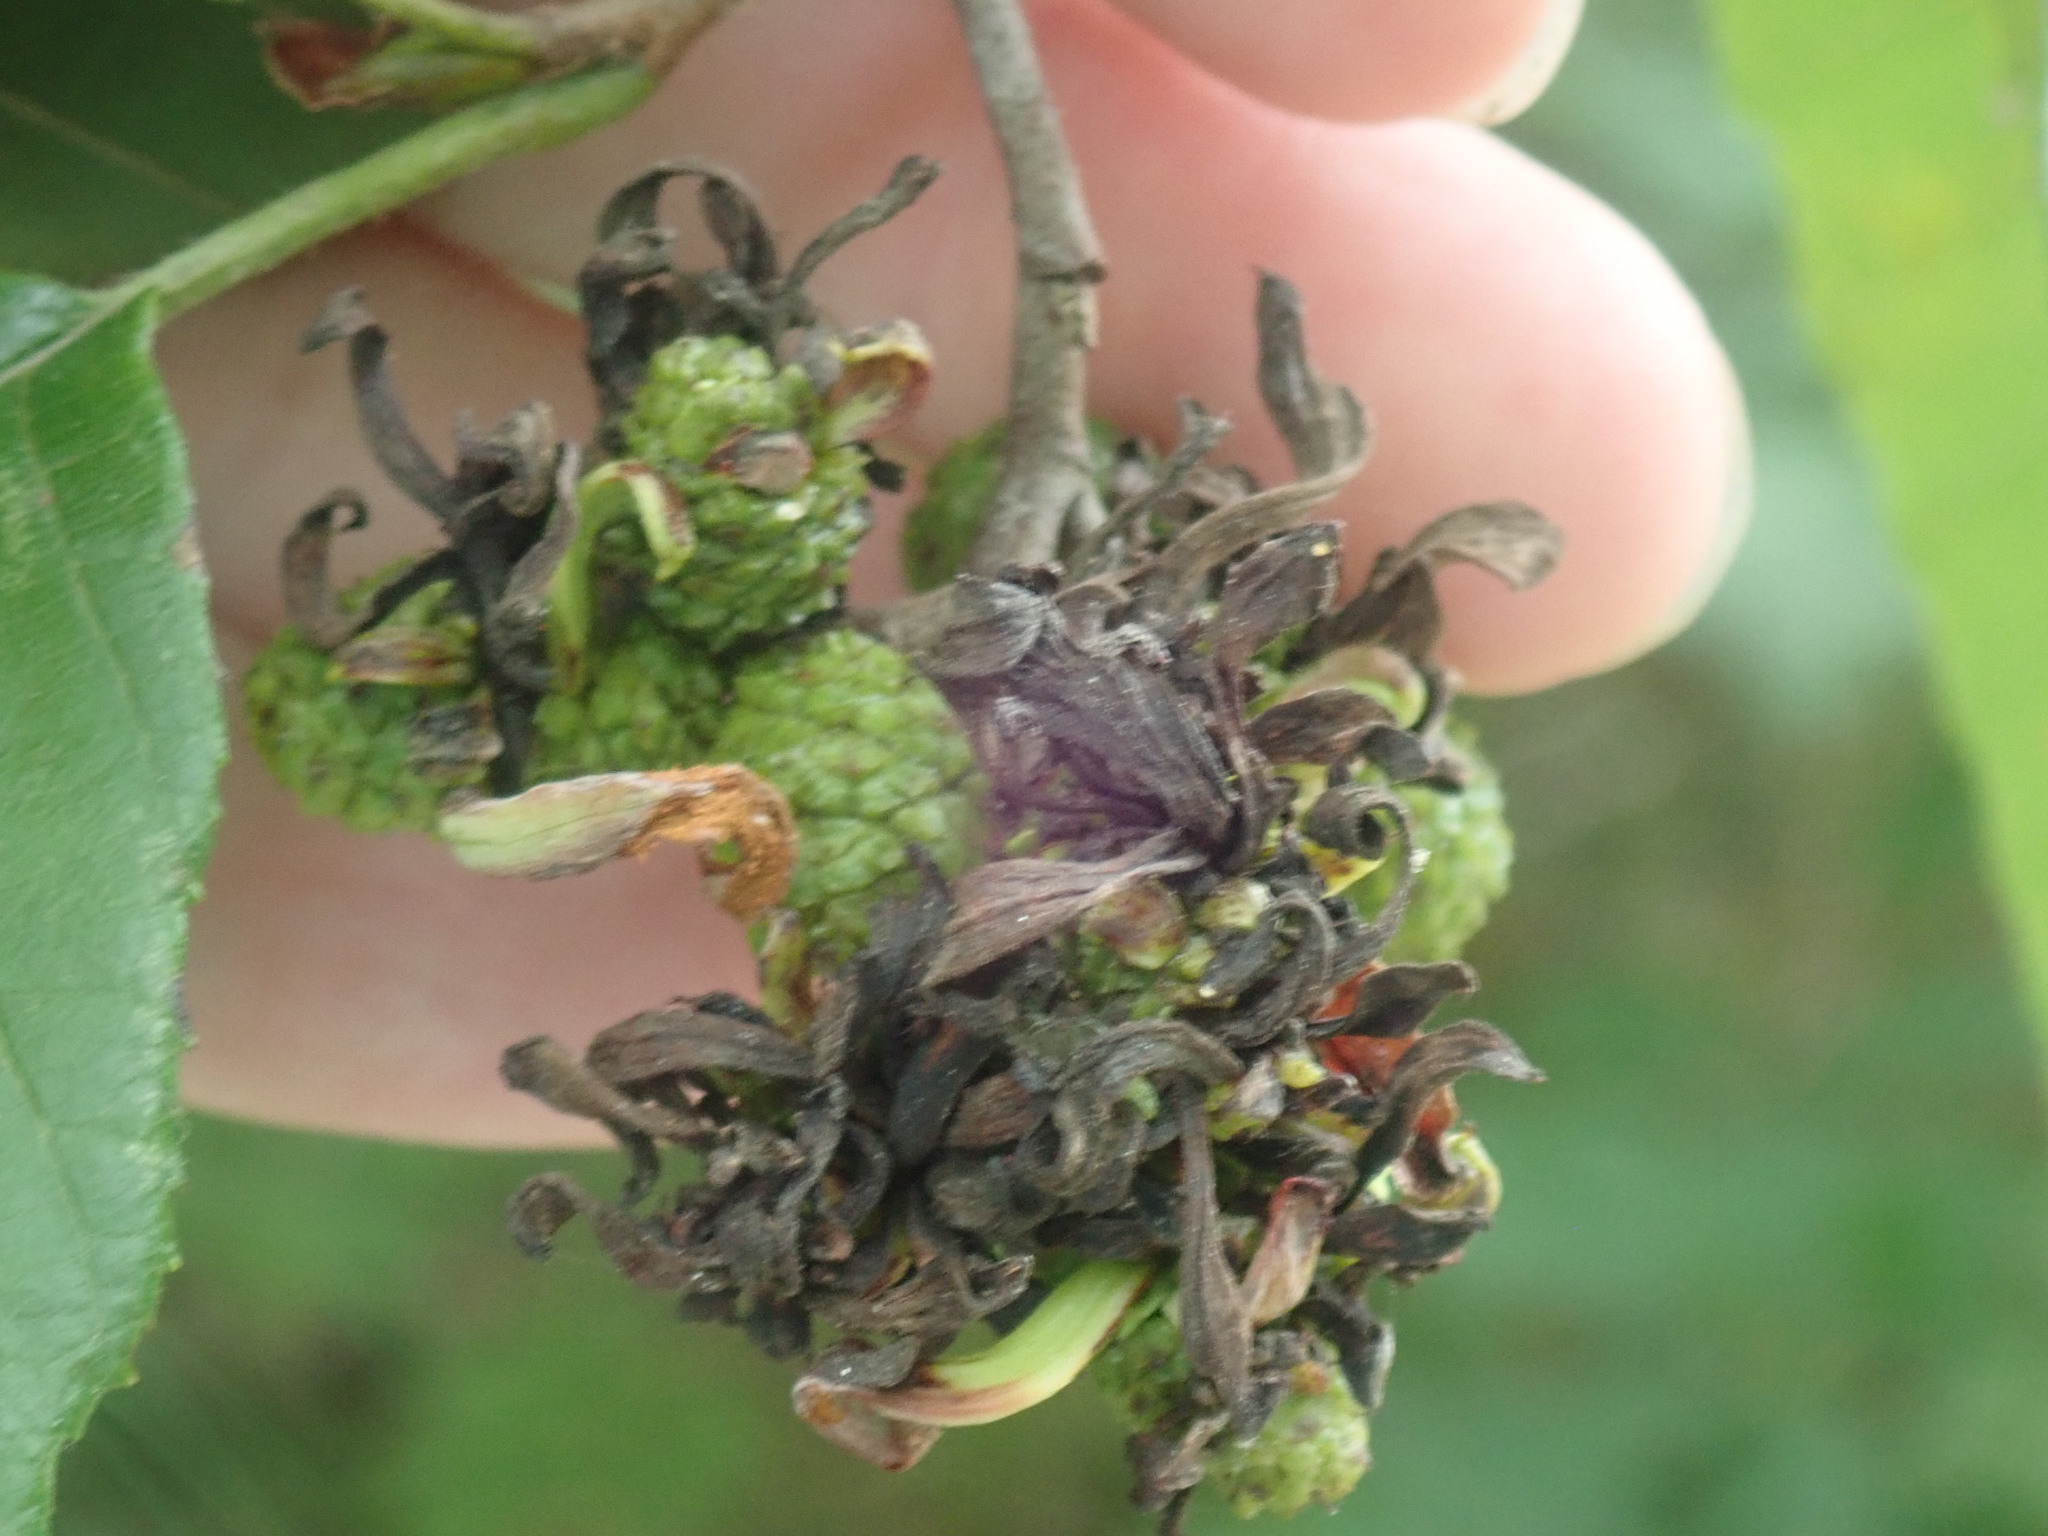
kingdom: Fungi
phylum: Ascomycota
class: Taphrinomycetes
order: Taphrinales
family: Taphrinaceae
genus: Taphrina
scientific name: Taphrina robinsoniana
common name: Eastern american alder tongue gall fungus
